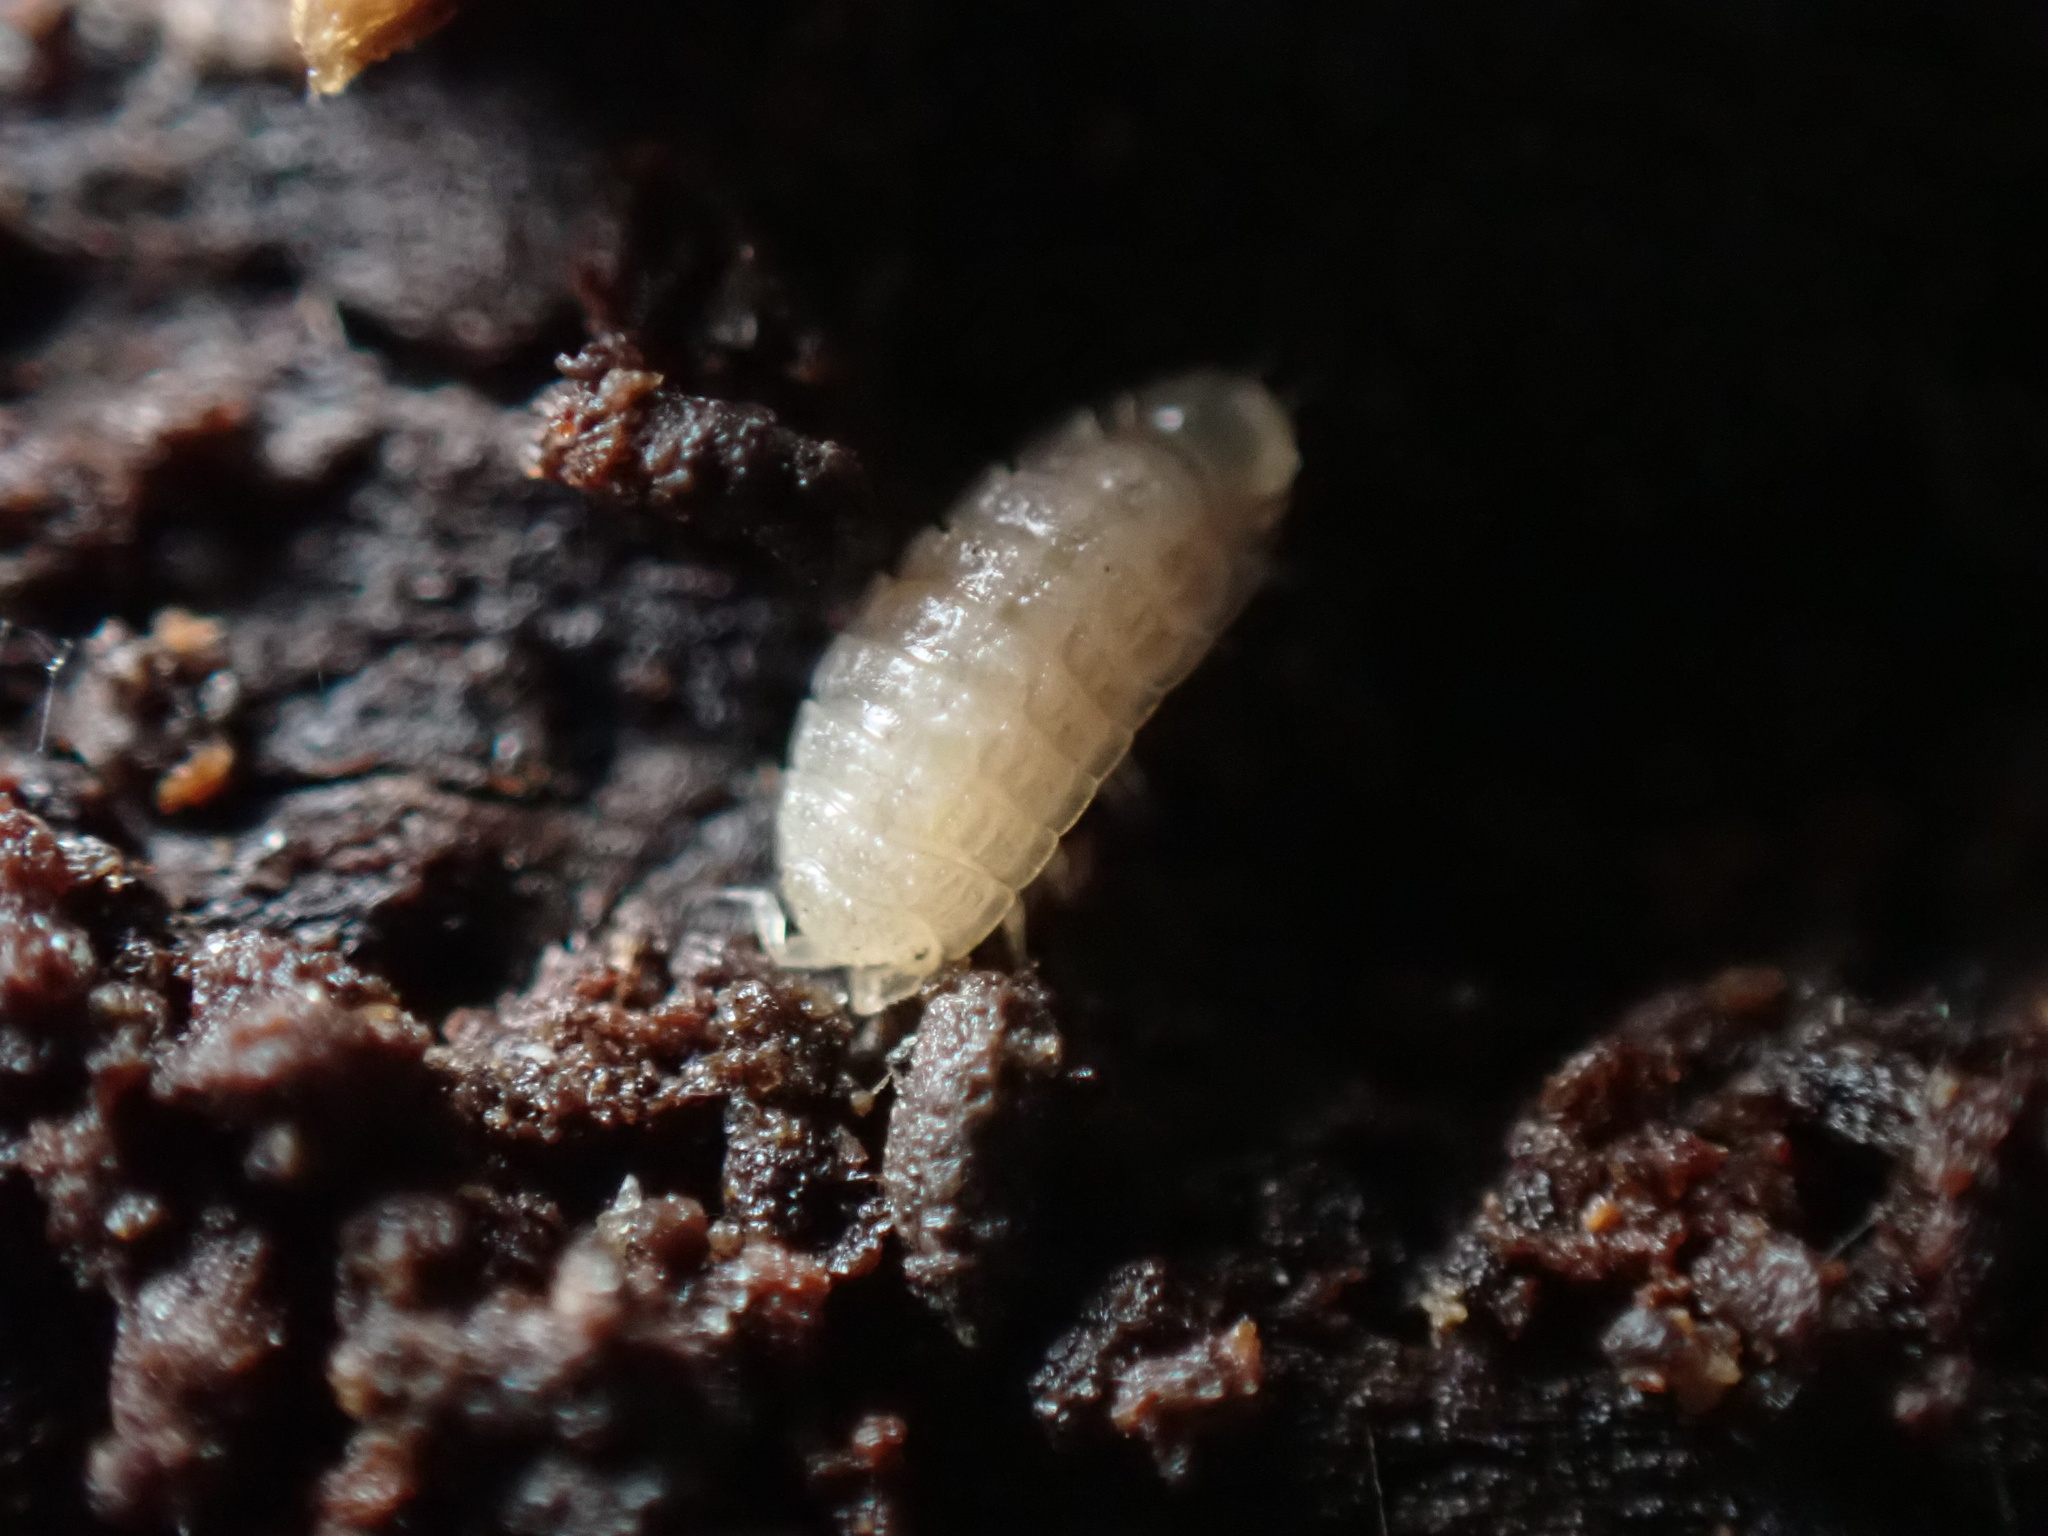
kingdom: Animalia
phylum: Arthropoda
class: Malacostraca
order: Isopoda
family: Trichoniscidae
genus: Haplophthalmus
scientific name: Haplophthalmus danicus
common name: Pillbug
